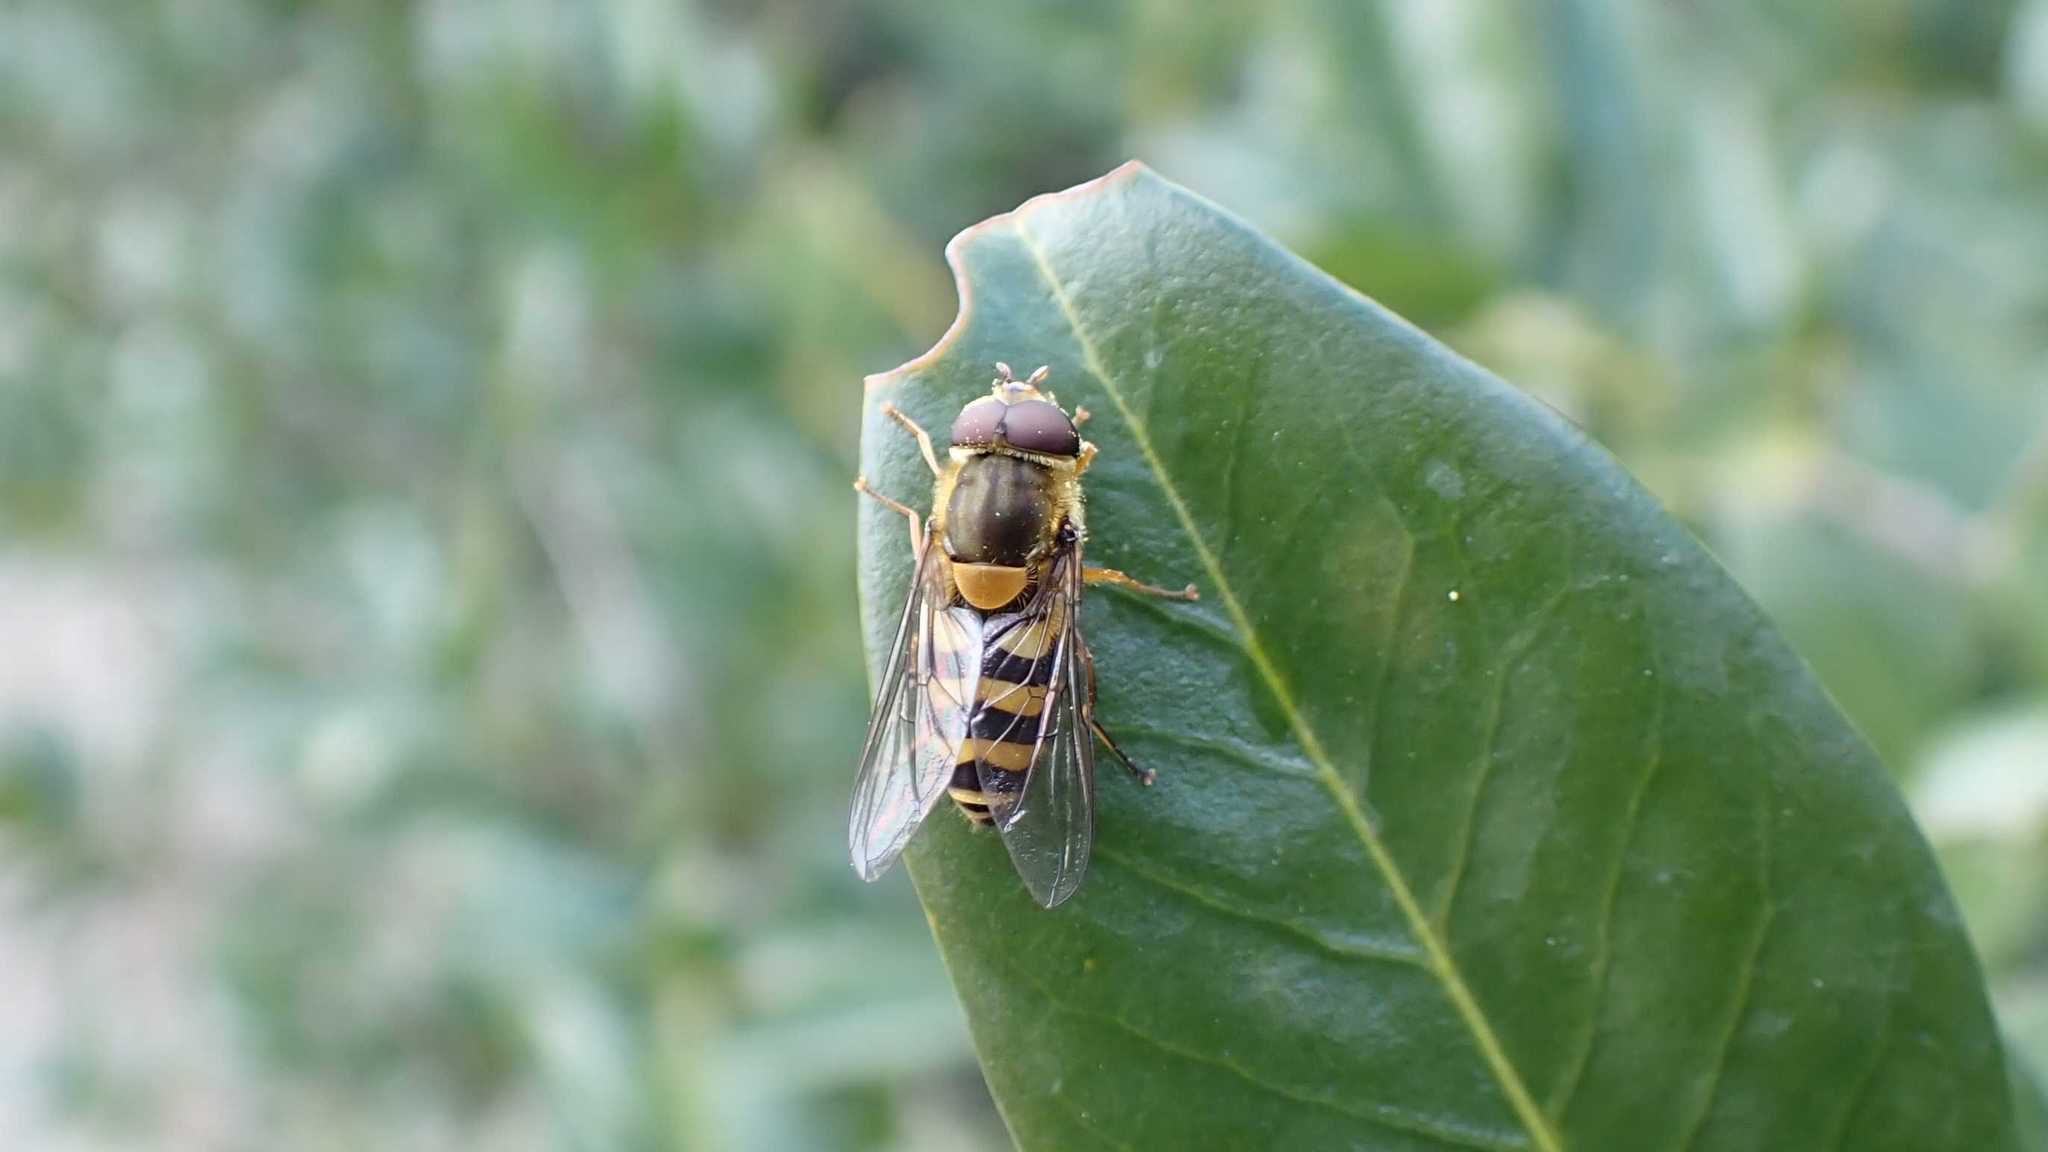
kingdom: Animalia
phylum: Arthropoda
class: Insecta
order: Diptera
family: Syrphidae
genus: Syrphus
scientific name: Syrphus
